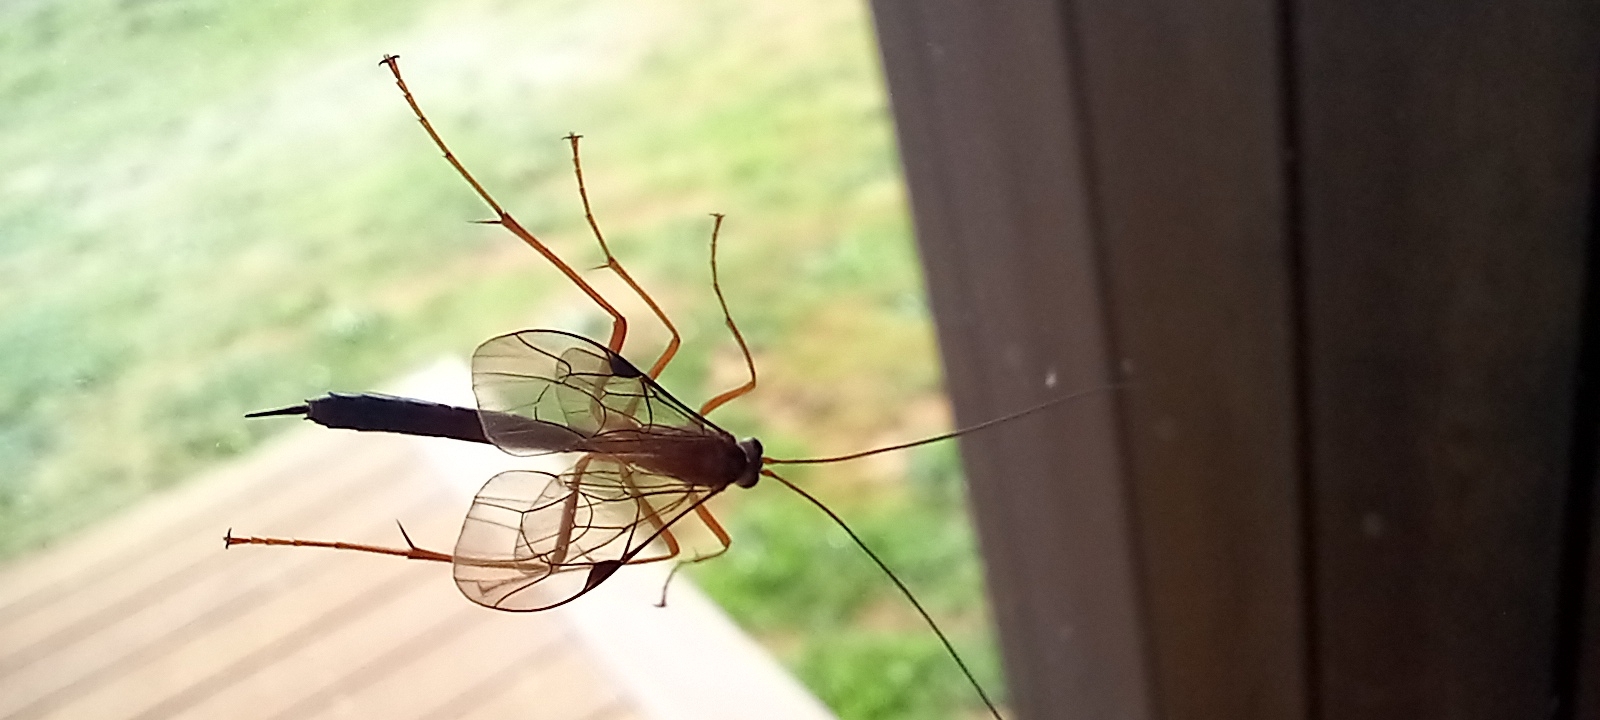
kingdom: Animalia
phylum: Arthropoda
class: Insecta
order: Hymenoptera
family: Ichneumonidae
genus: Netelia
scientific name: Netelia ephippiata
